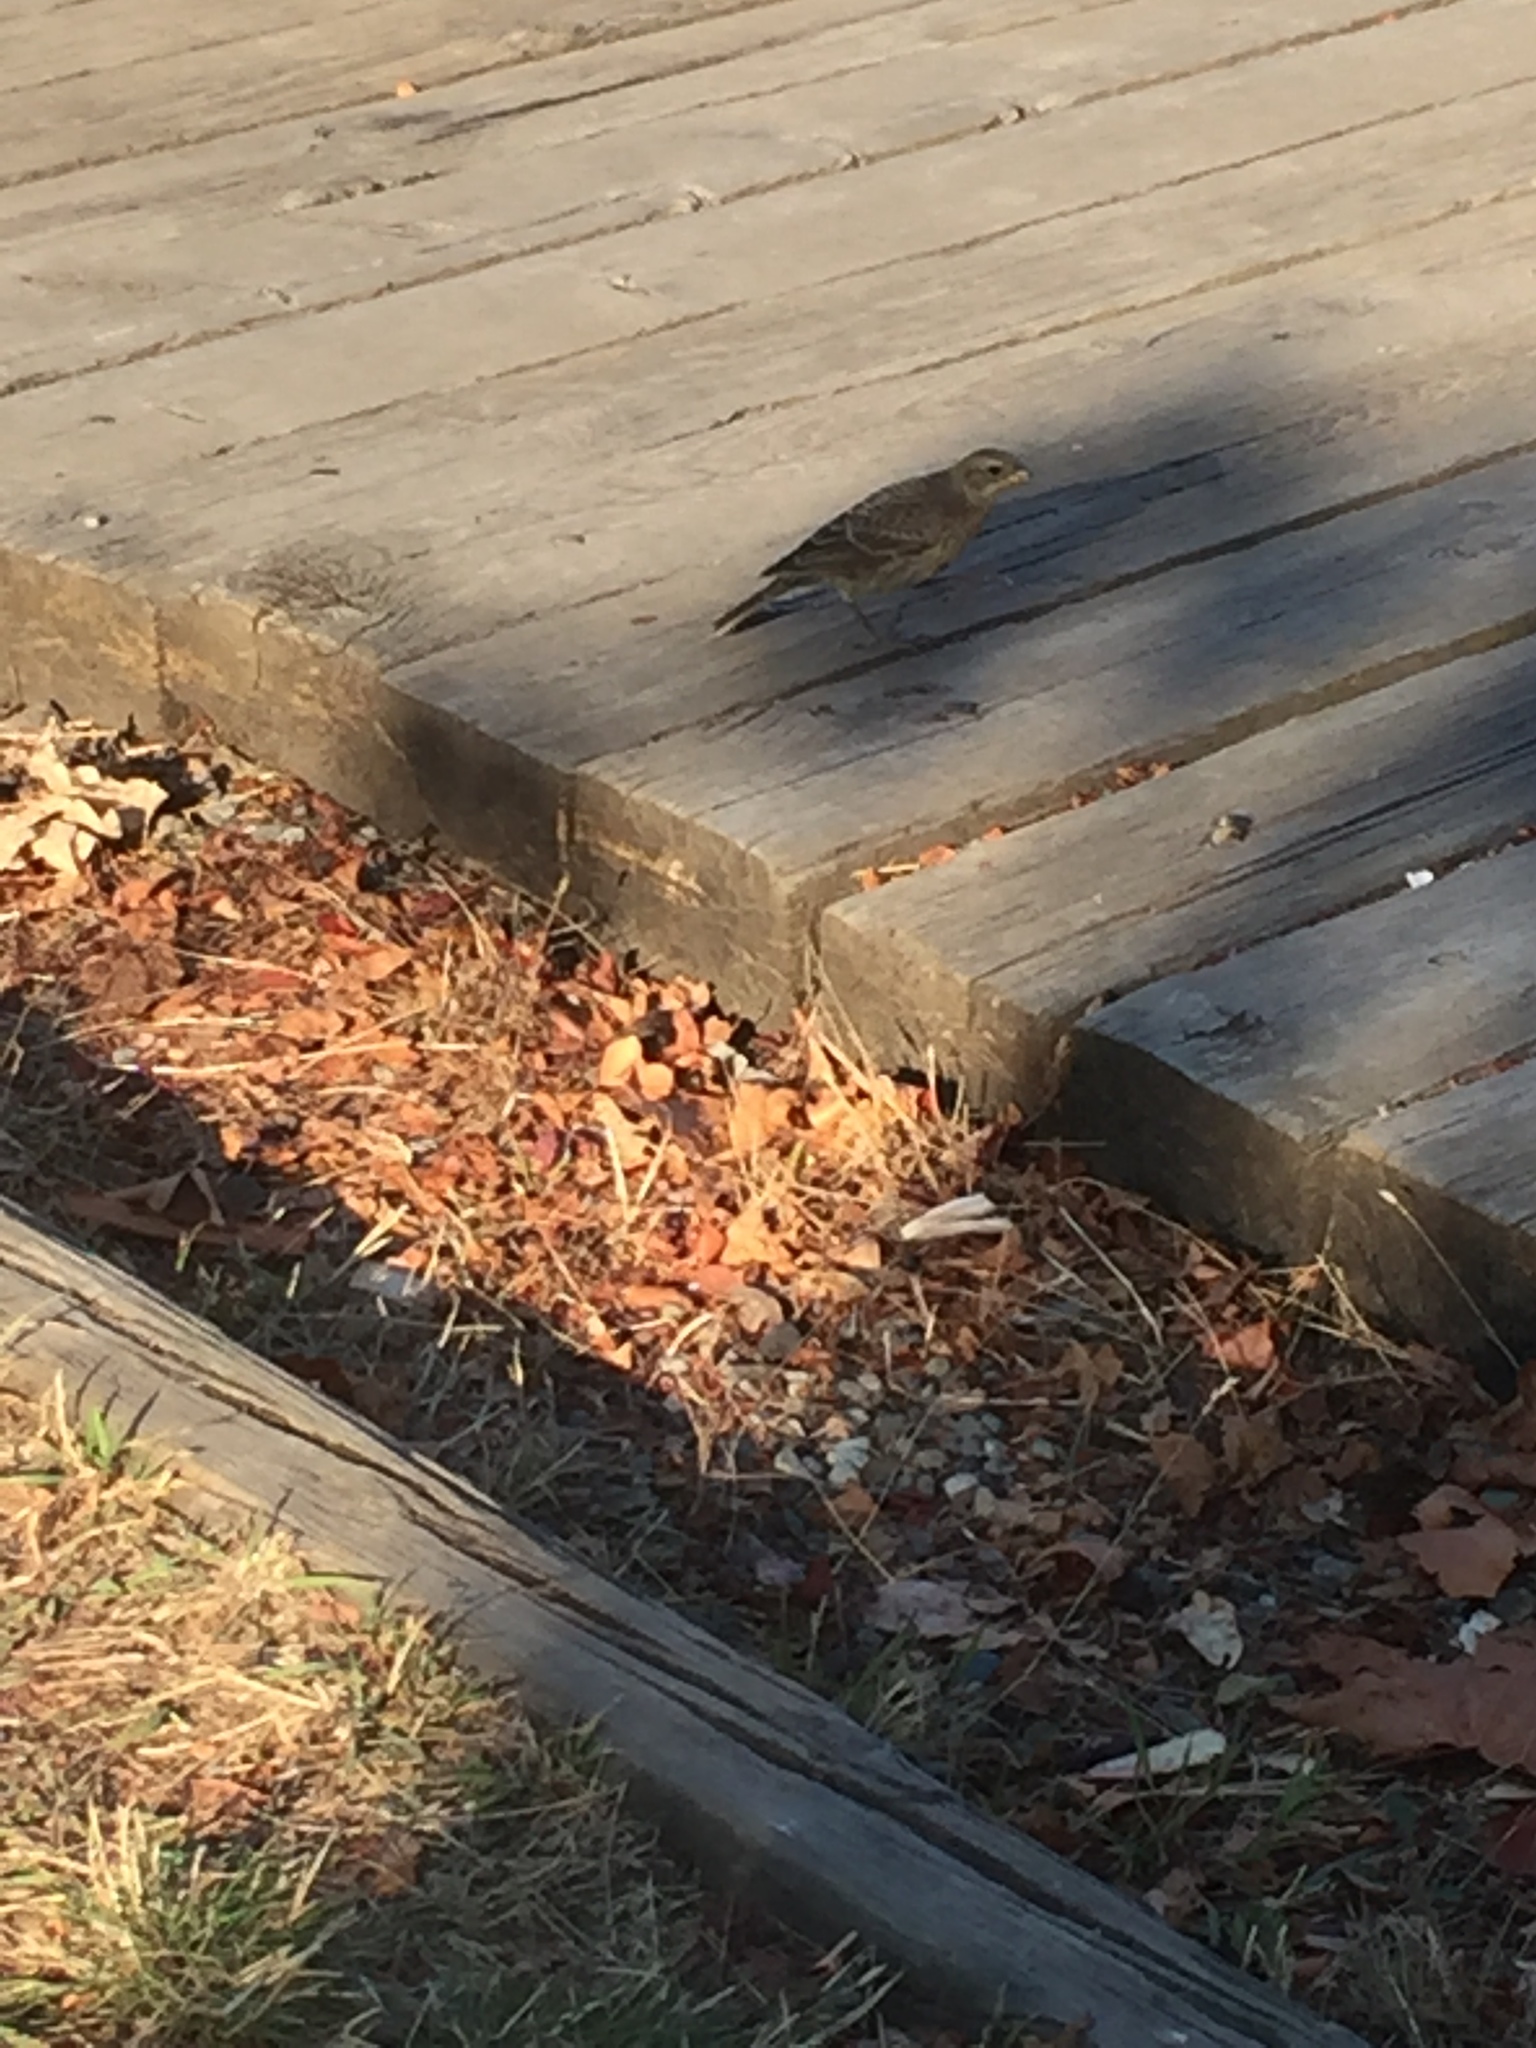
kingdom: Animalia
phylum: Chordata
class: Aves
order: Passeriformes
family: Icteridae
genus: Molothrus
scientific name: Molothrus ater
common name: Brown-headed cowbird
